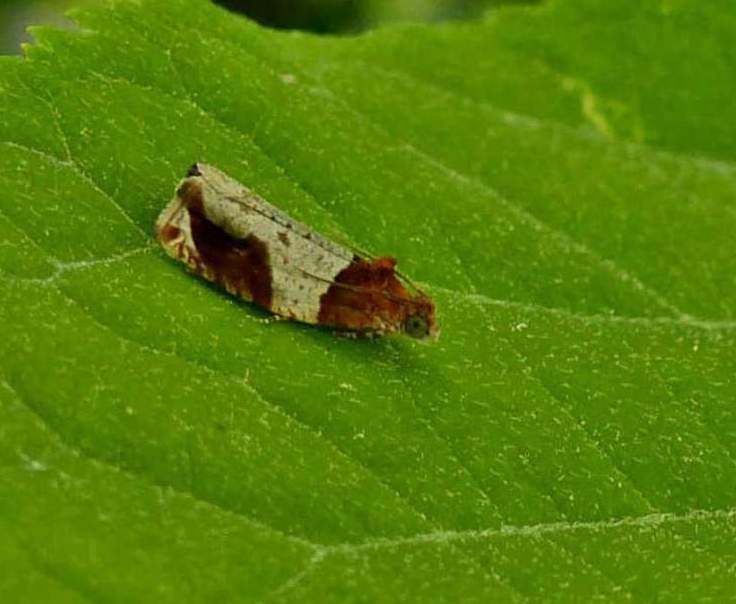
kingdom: Animalia
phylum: Arthropoda
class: Insecta
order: Lepidoptera
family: Tortricidae
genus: Olethreutes
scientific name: Olethreutes ferriferana
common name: Hydrangea leaftier moth
